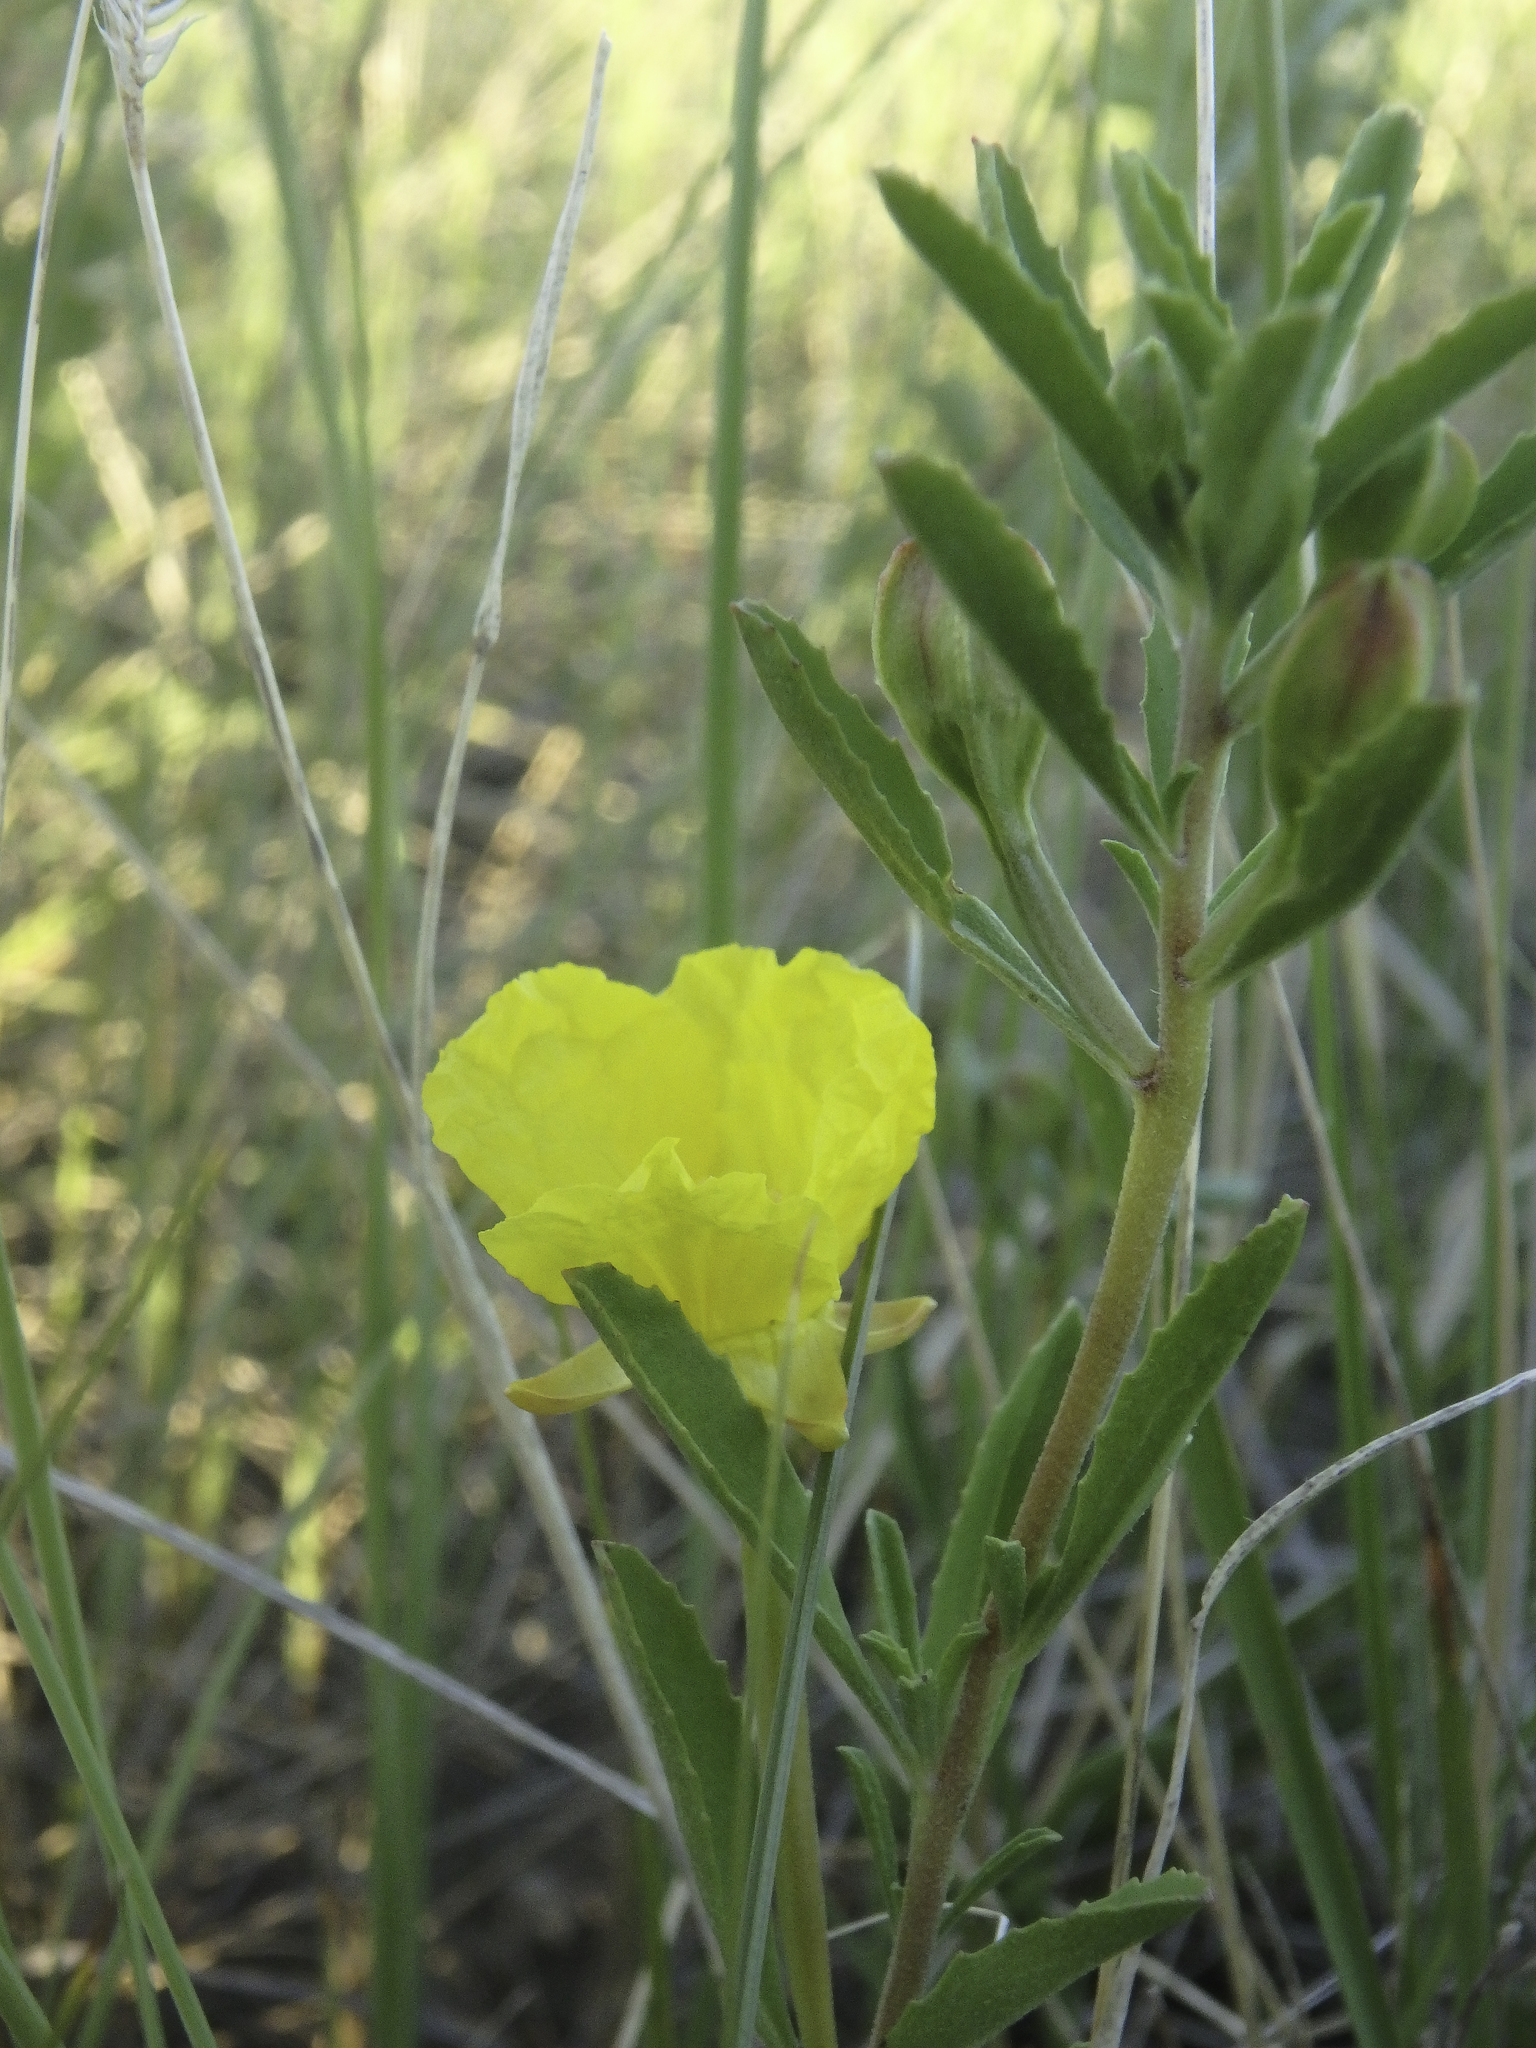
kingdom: Plantae
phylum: Tracheophyta
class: Magnoliopsida
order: Myrtales
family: Onagraceae
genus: Oenothera
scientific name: Oenothera serrulata
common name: Half-shrub calylophus
